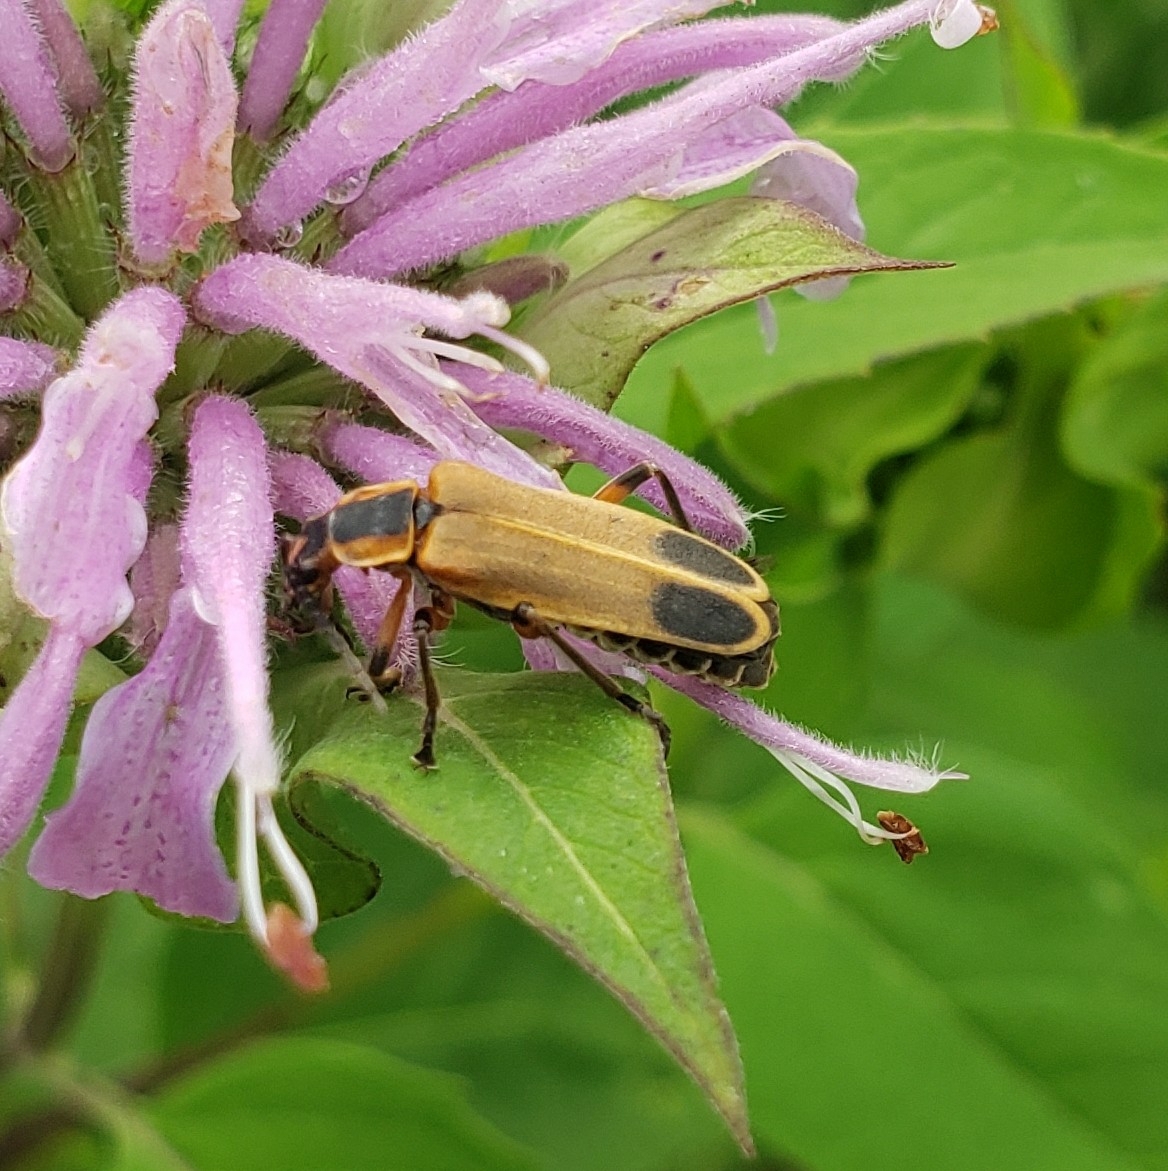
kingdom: Animalia
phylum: Arthropoda
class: Insecta
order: Coleoptera
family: Cantharidae
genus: Chauliognathus
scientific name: Chauliognathus marginatus
